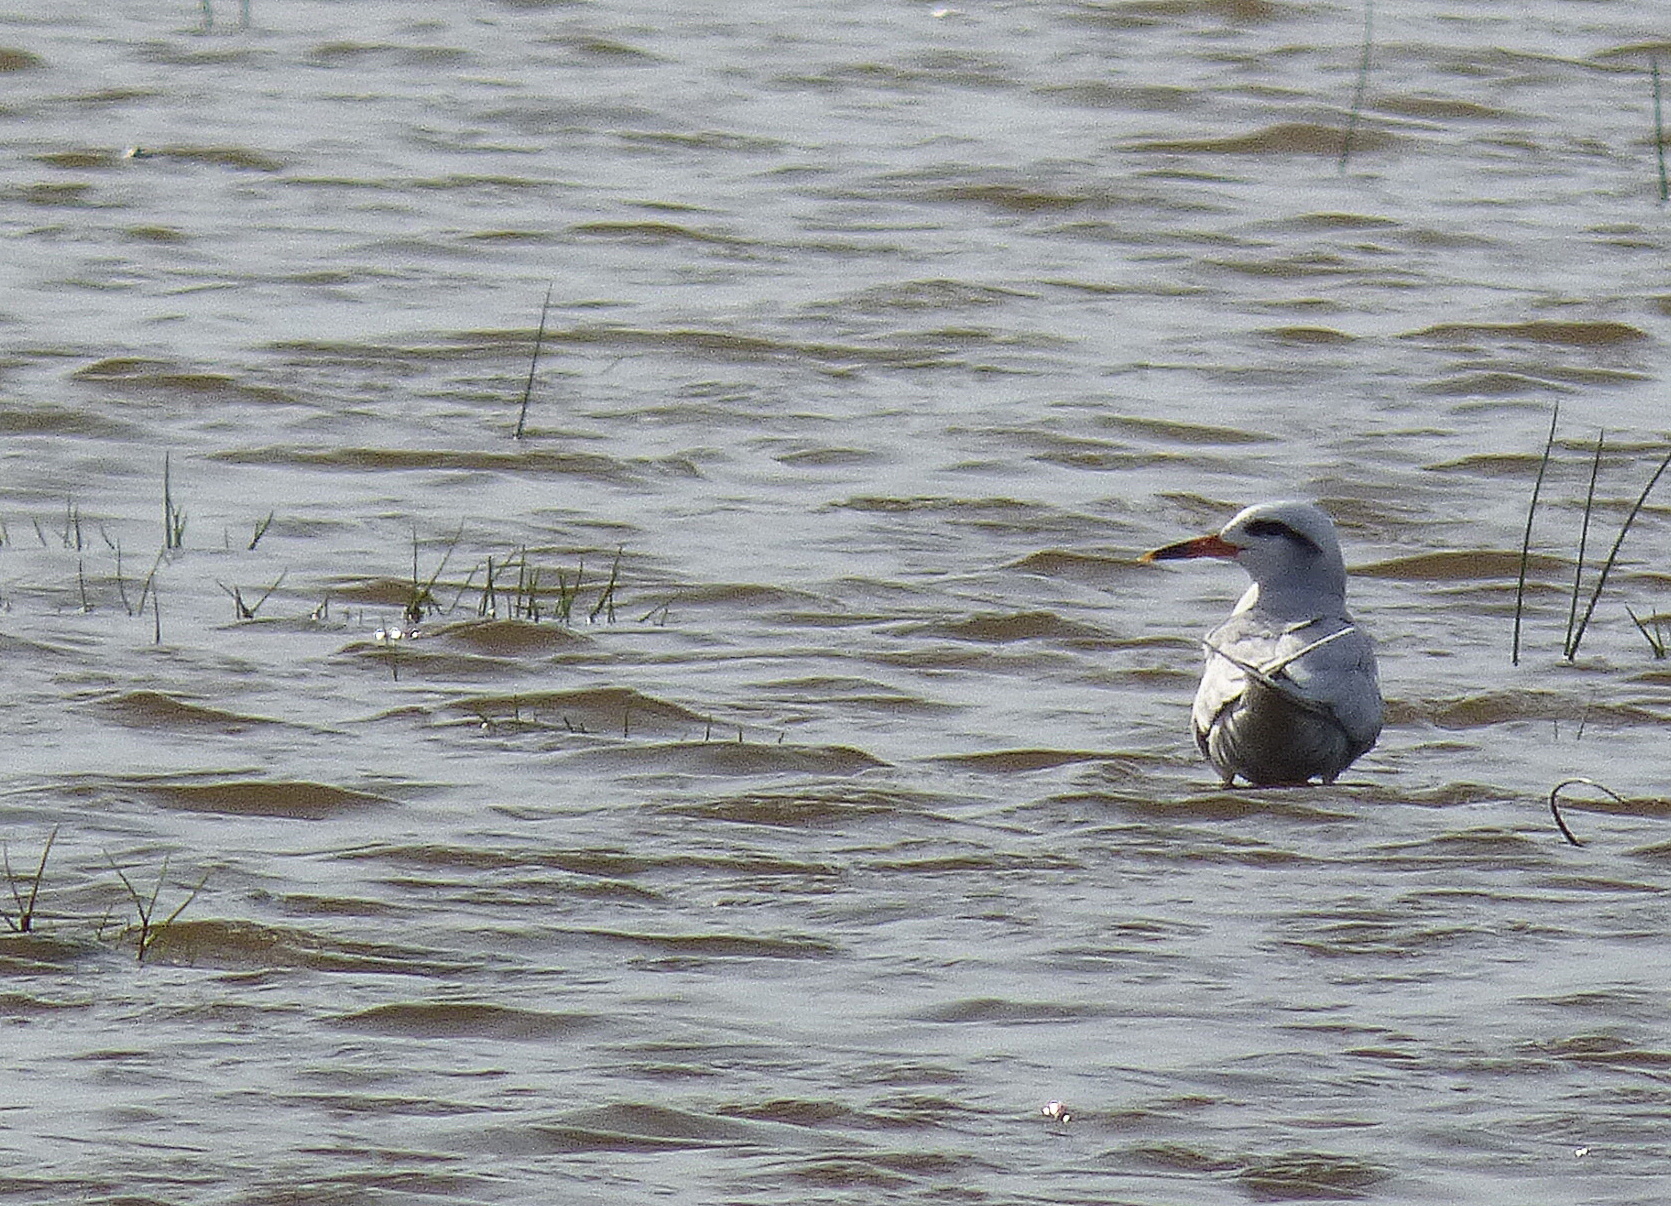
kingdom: Animalia
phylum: Chordata
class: Aves
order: Charadriiformes
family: Laridae
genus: Sterna
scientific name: Sterna trudeaui
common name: Snowy-crowned tern
